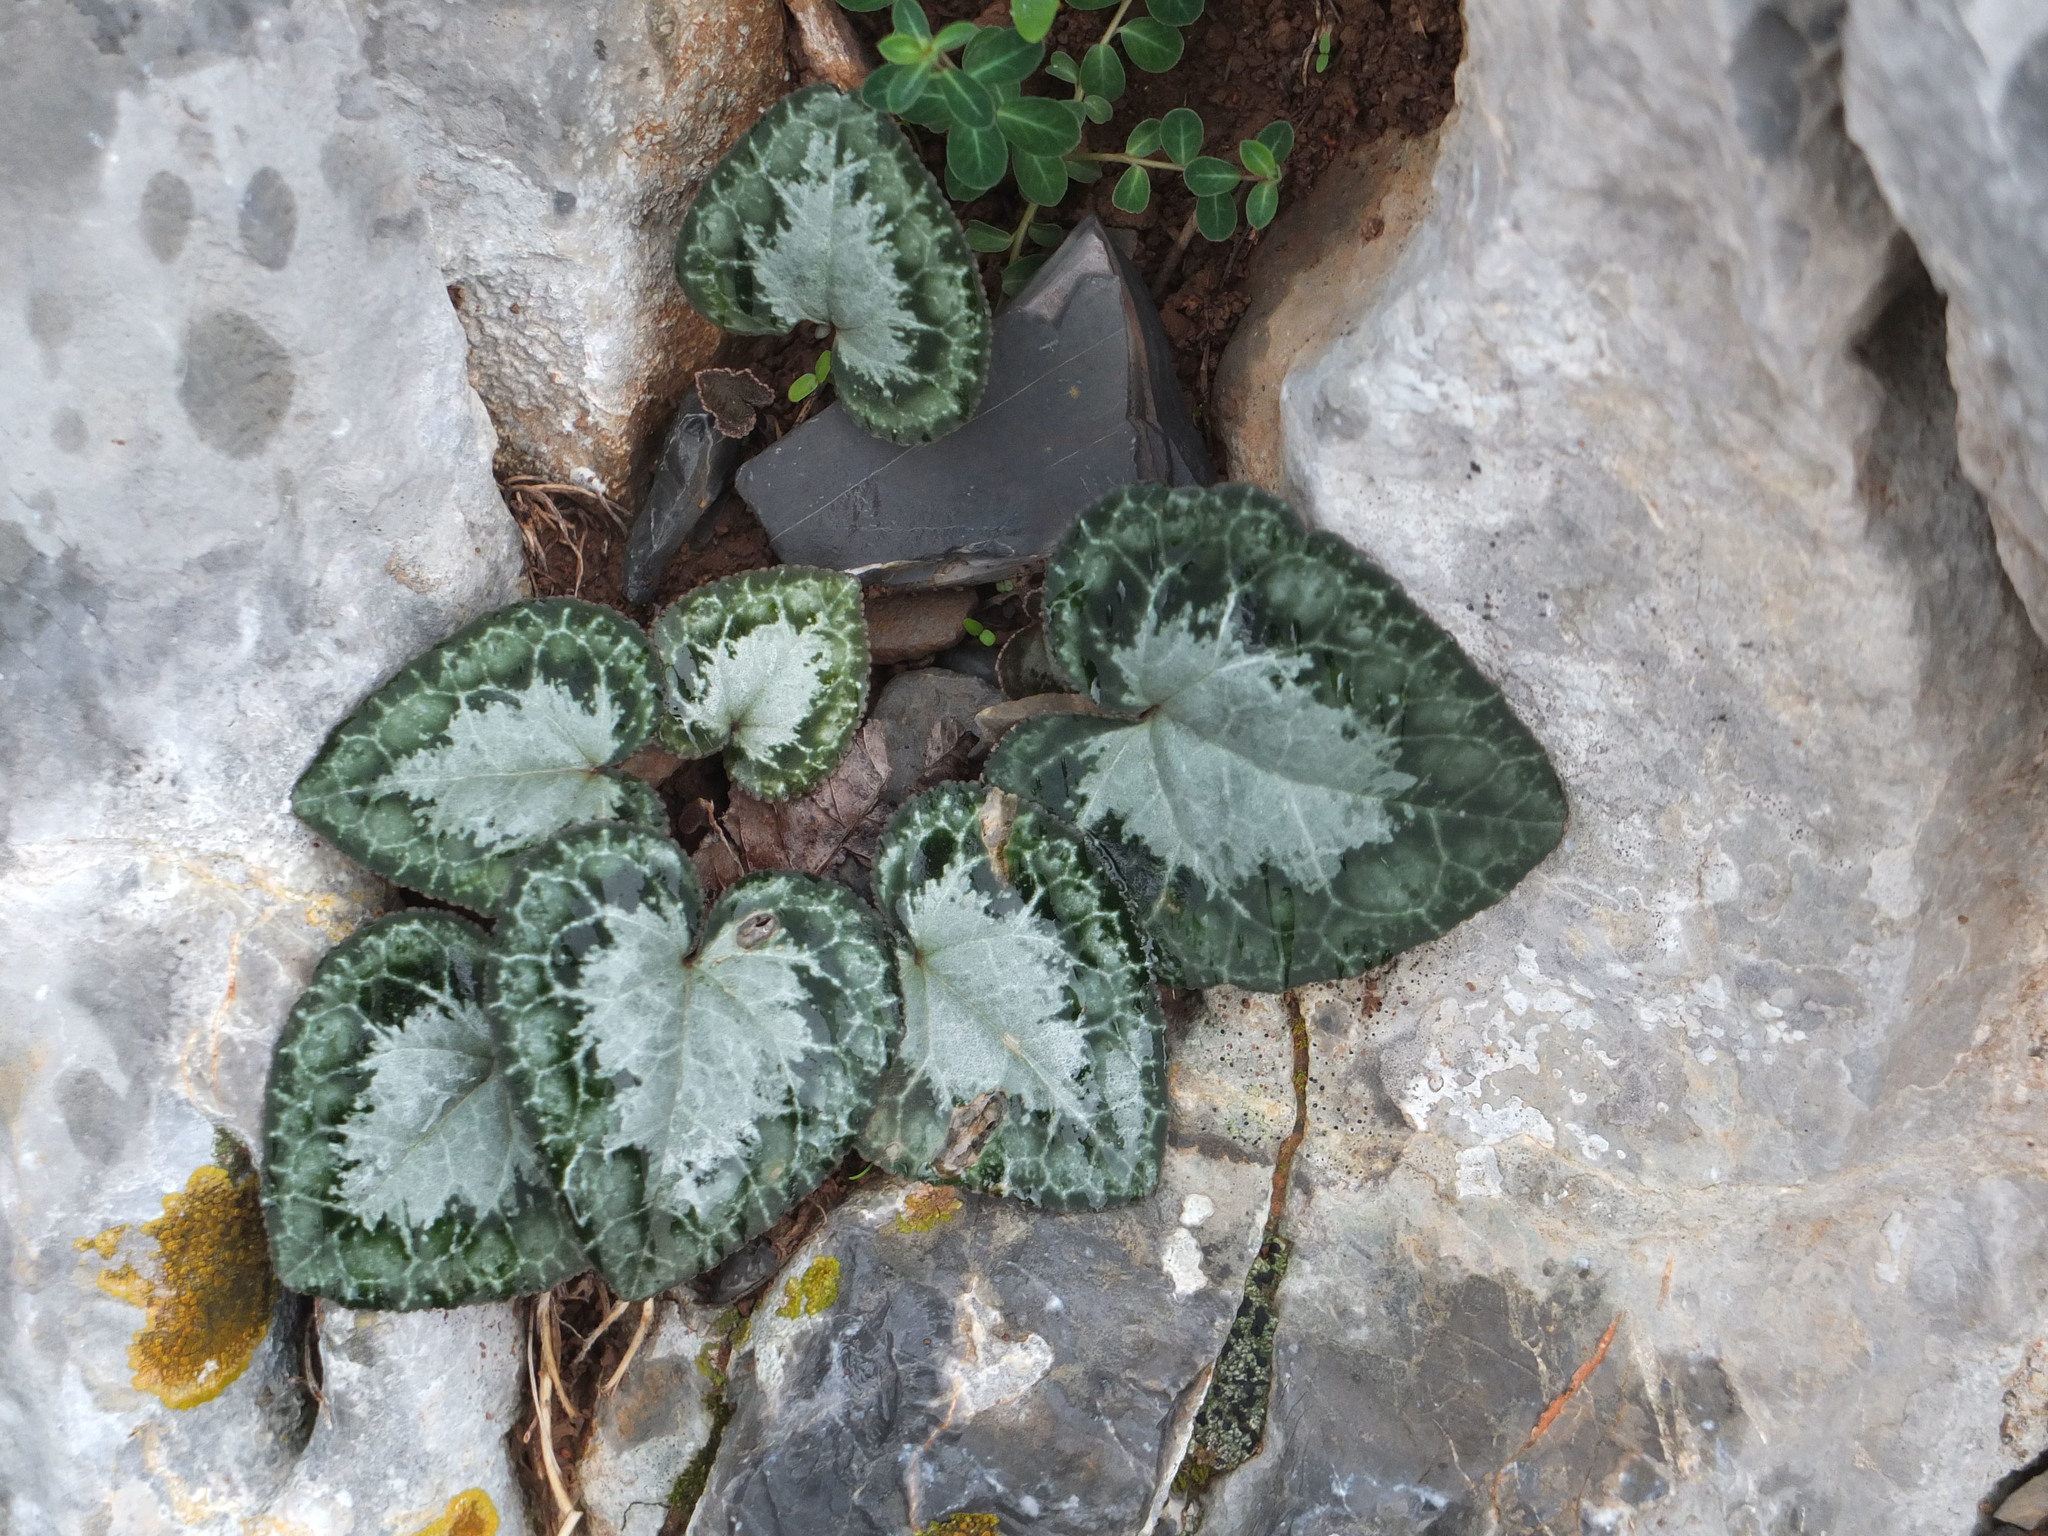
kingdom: Plantae
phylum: Tracheophyta
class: Magnoliopsida
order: Ericales
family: Primulaceae
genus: Cyclamen
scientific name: Cyclamen graecum
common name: Greek cyclamen
